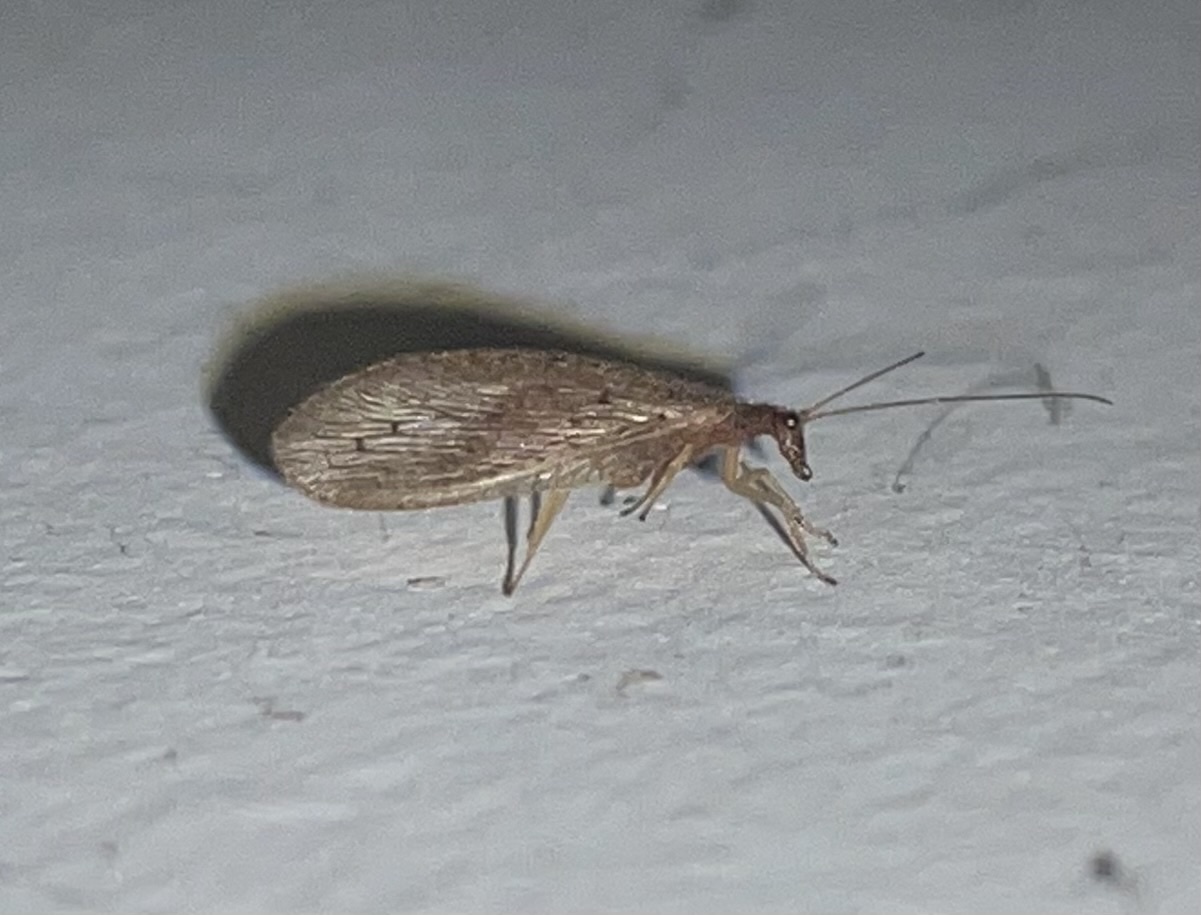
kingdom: Animalia
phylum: Arthropoda
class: Insecta
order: Neuroptera
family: Hemerobiidae
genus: Micromus
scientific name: Micromus subanticus
